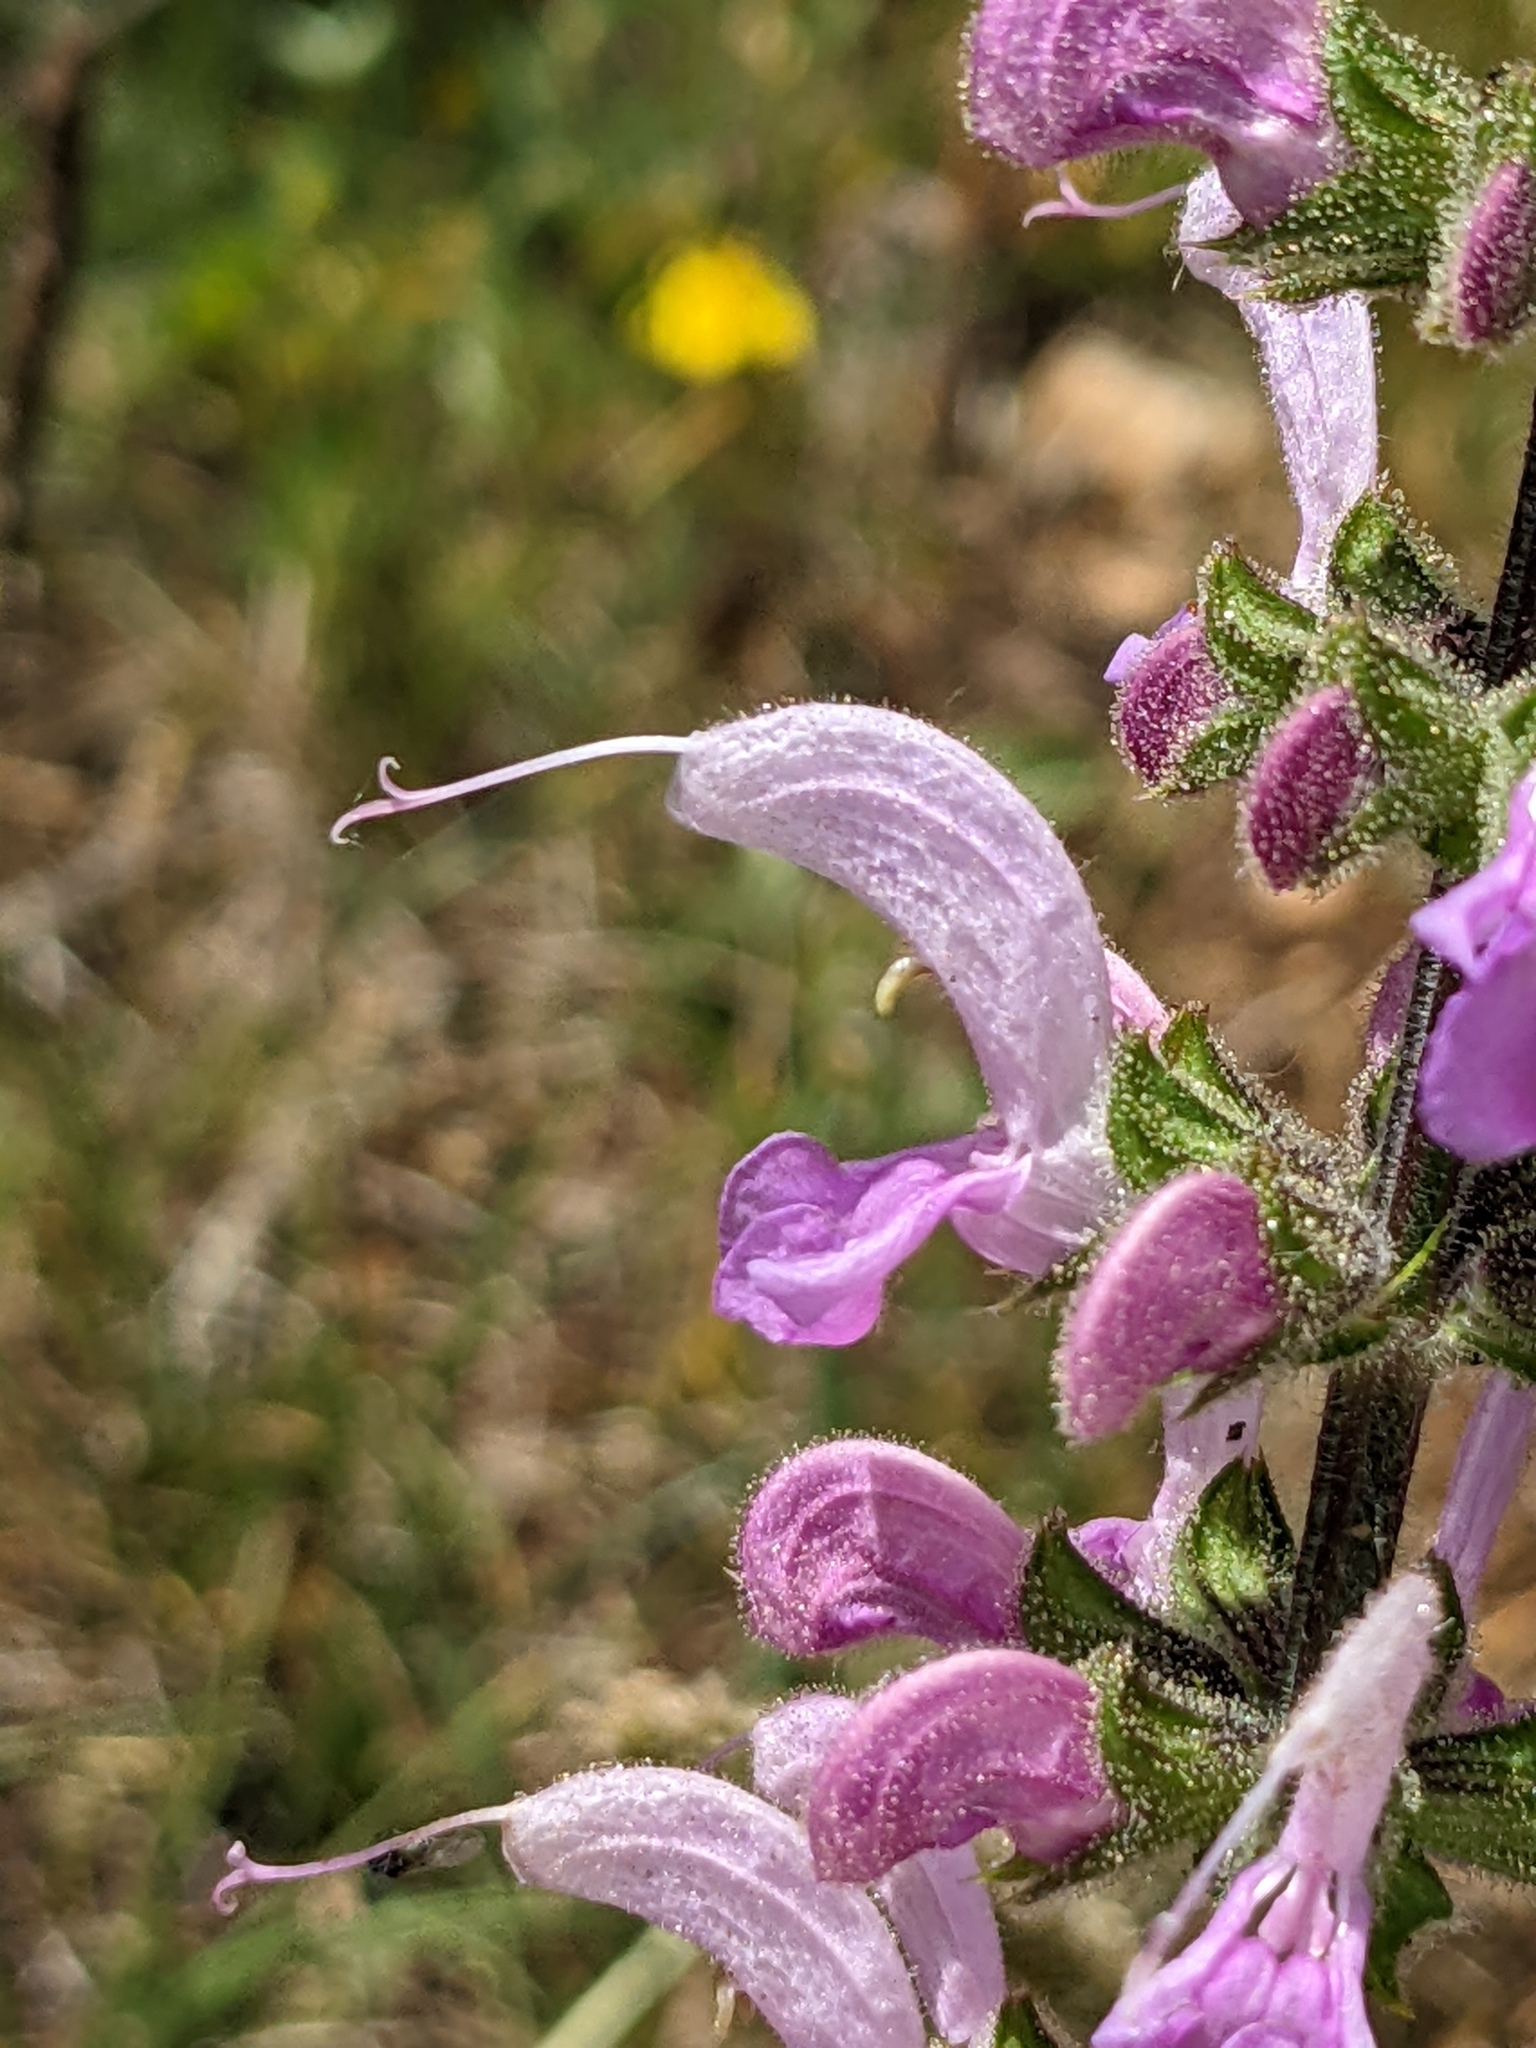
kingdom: Plantae
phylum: Tracheophyta
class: Magnoliopsida
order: Lamiales
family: Lamiaceae
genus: Salvia
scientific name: Salvia pratensis
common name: Meadow sage
